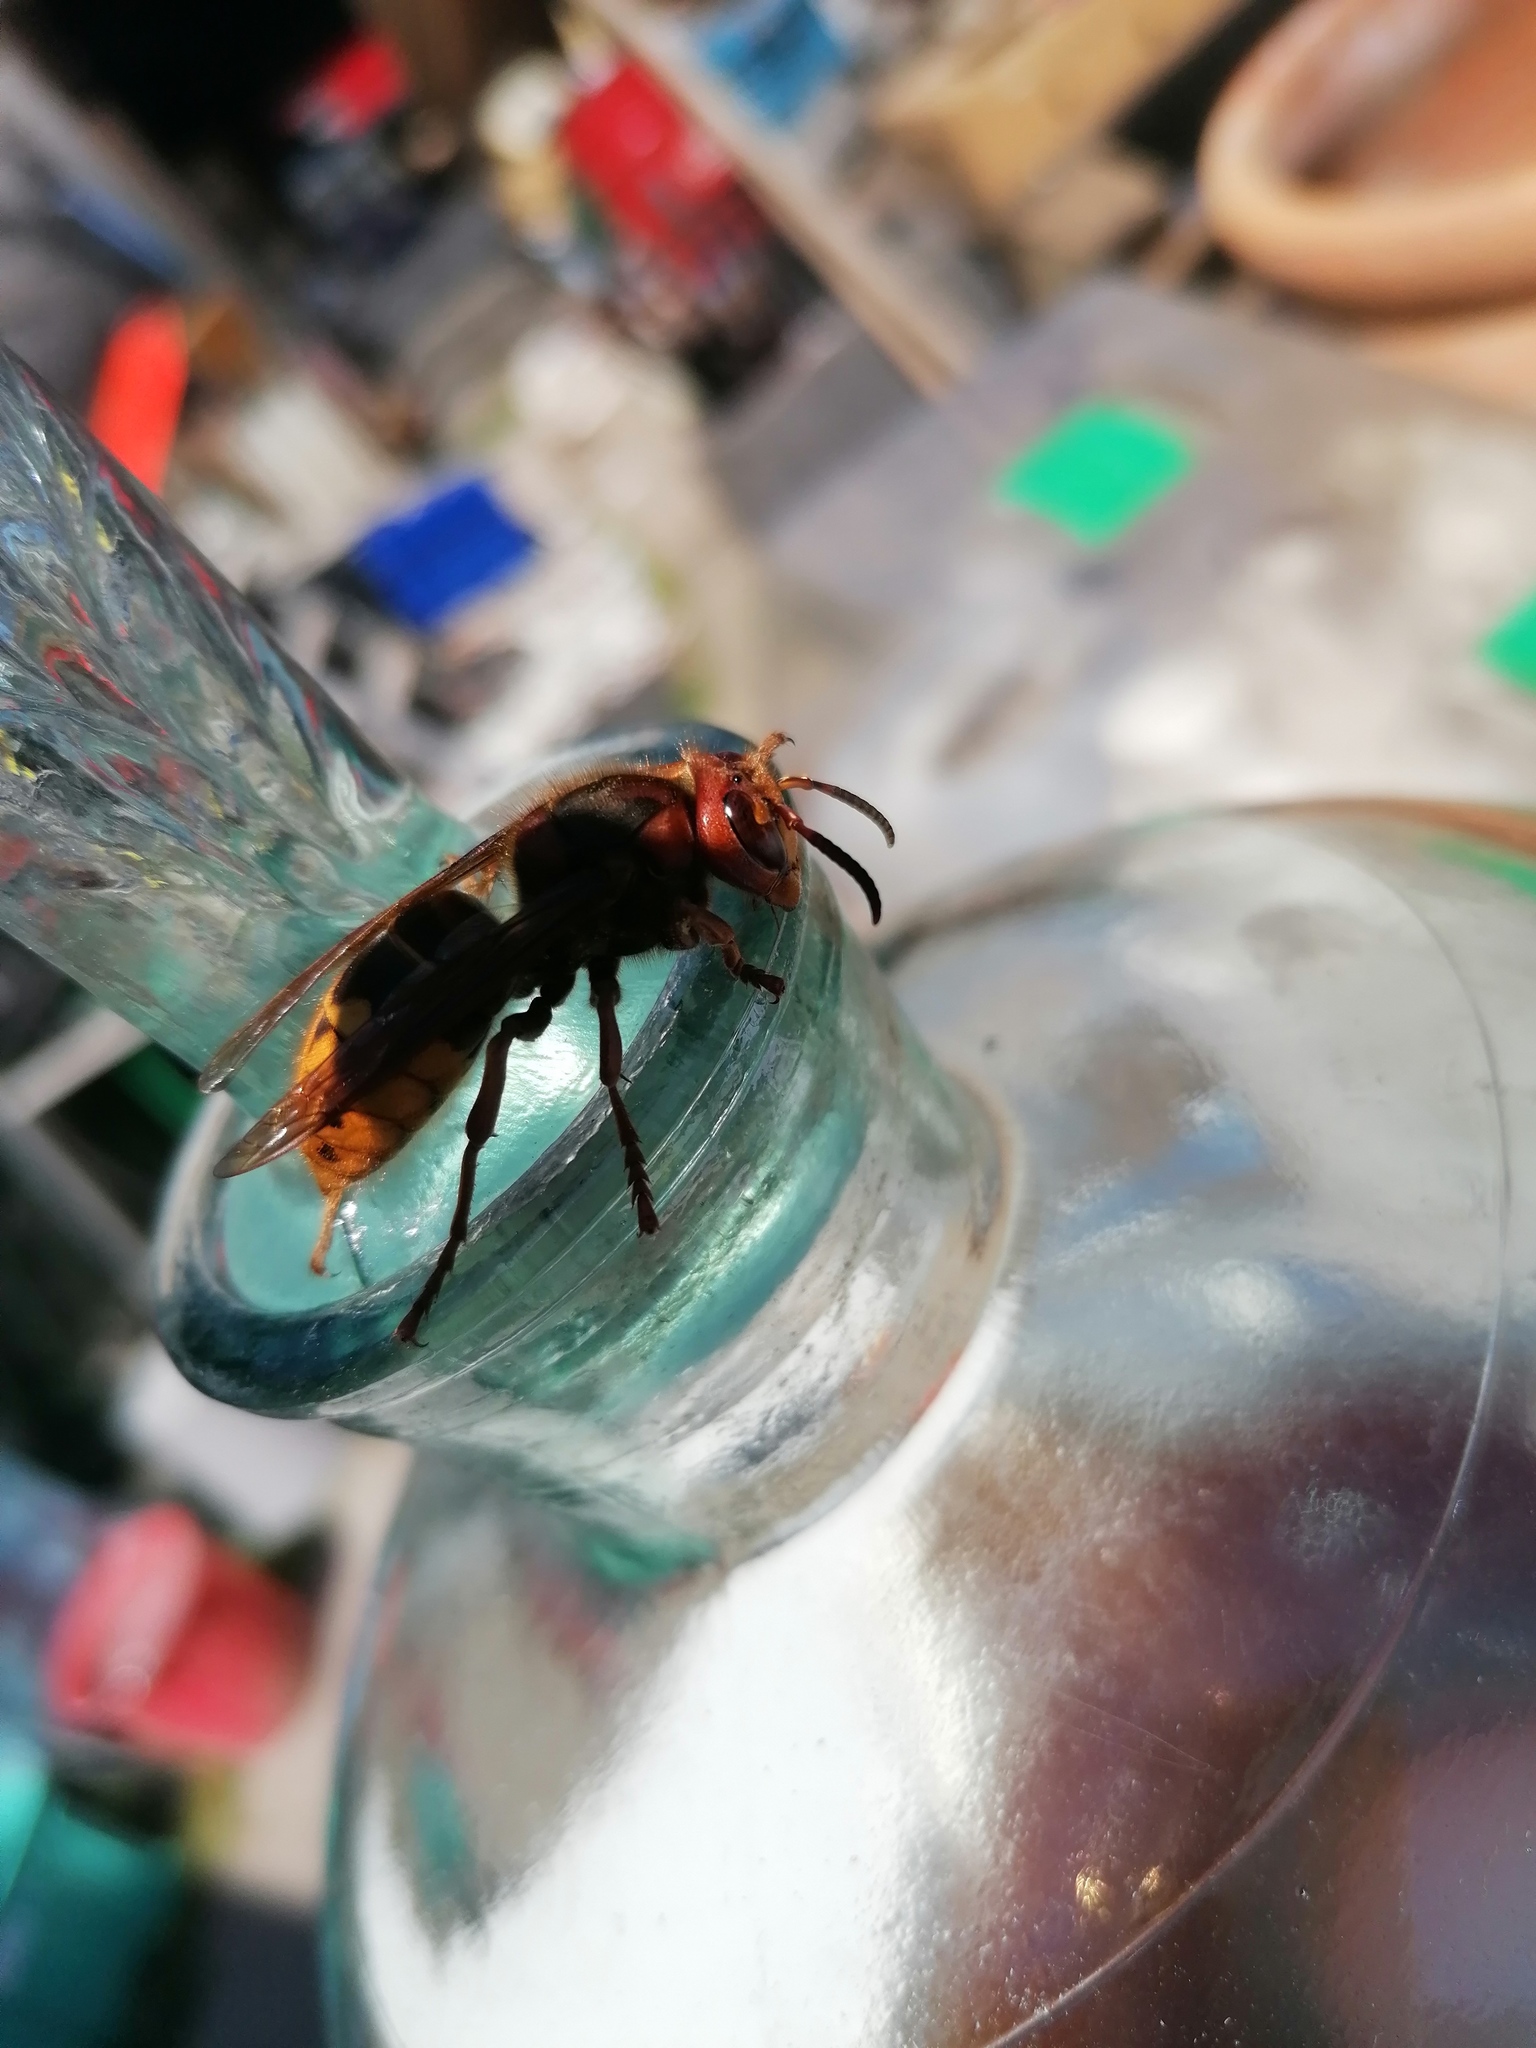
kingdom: Animalia
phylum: Arthropoda
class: Insecta
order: Hymenoptera
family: Vespidae
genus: Vespa
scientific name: Vespa crabro
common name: Hornet
